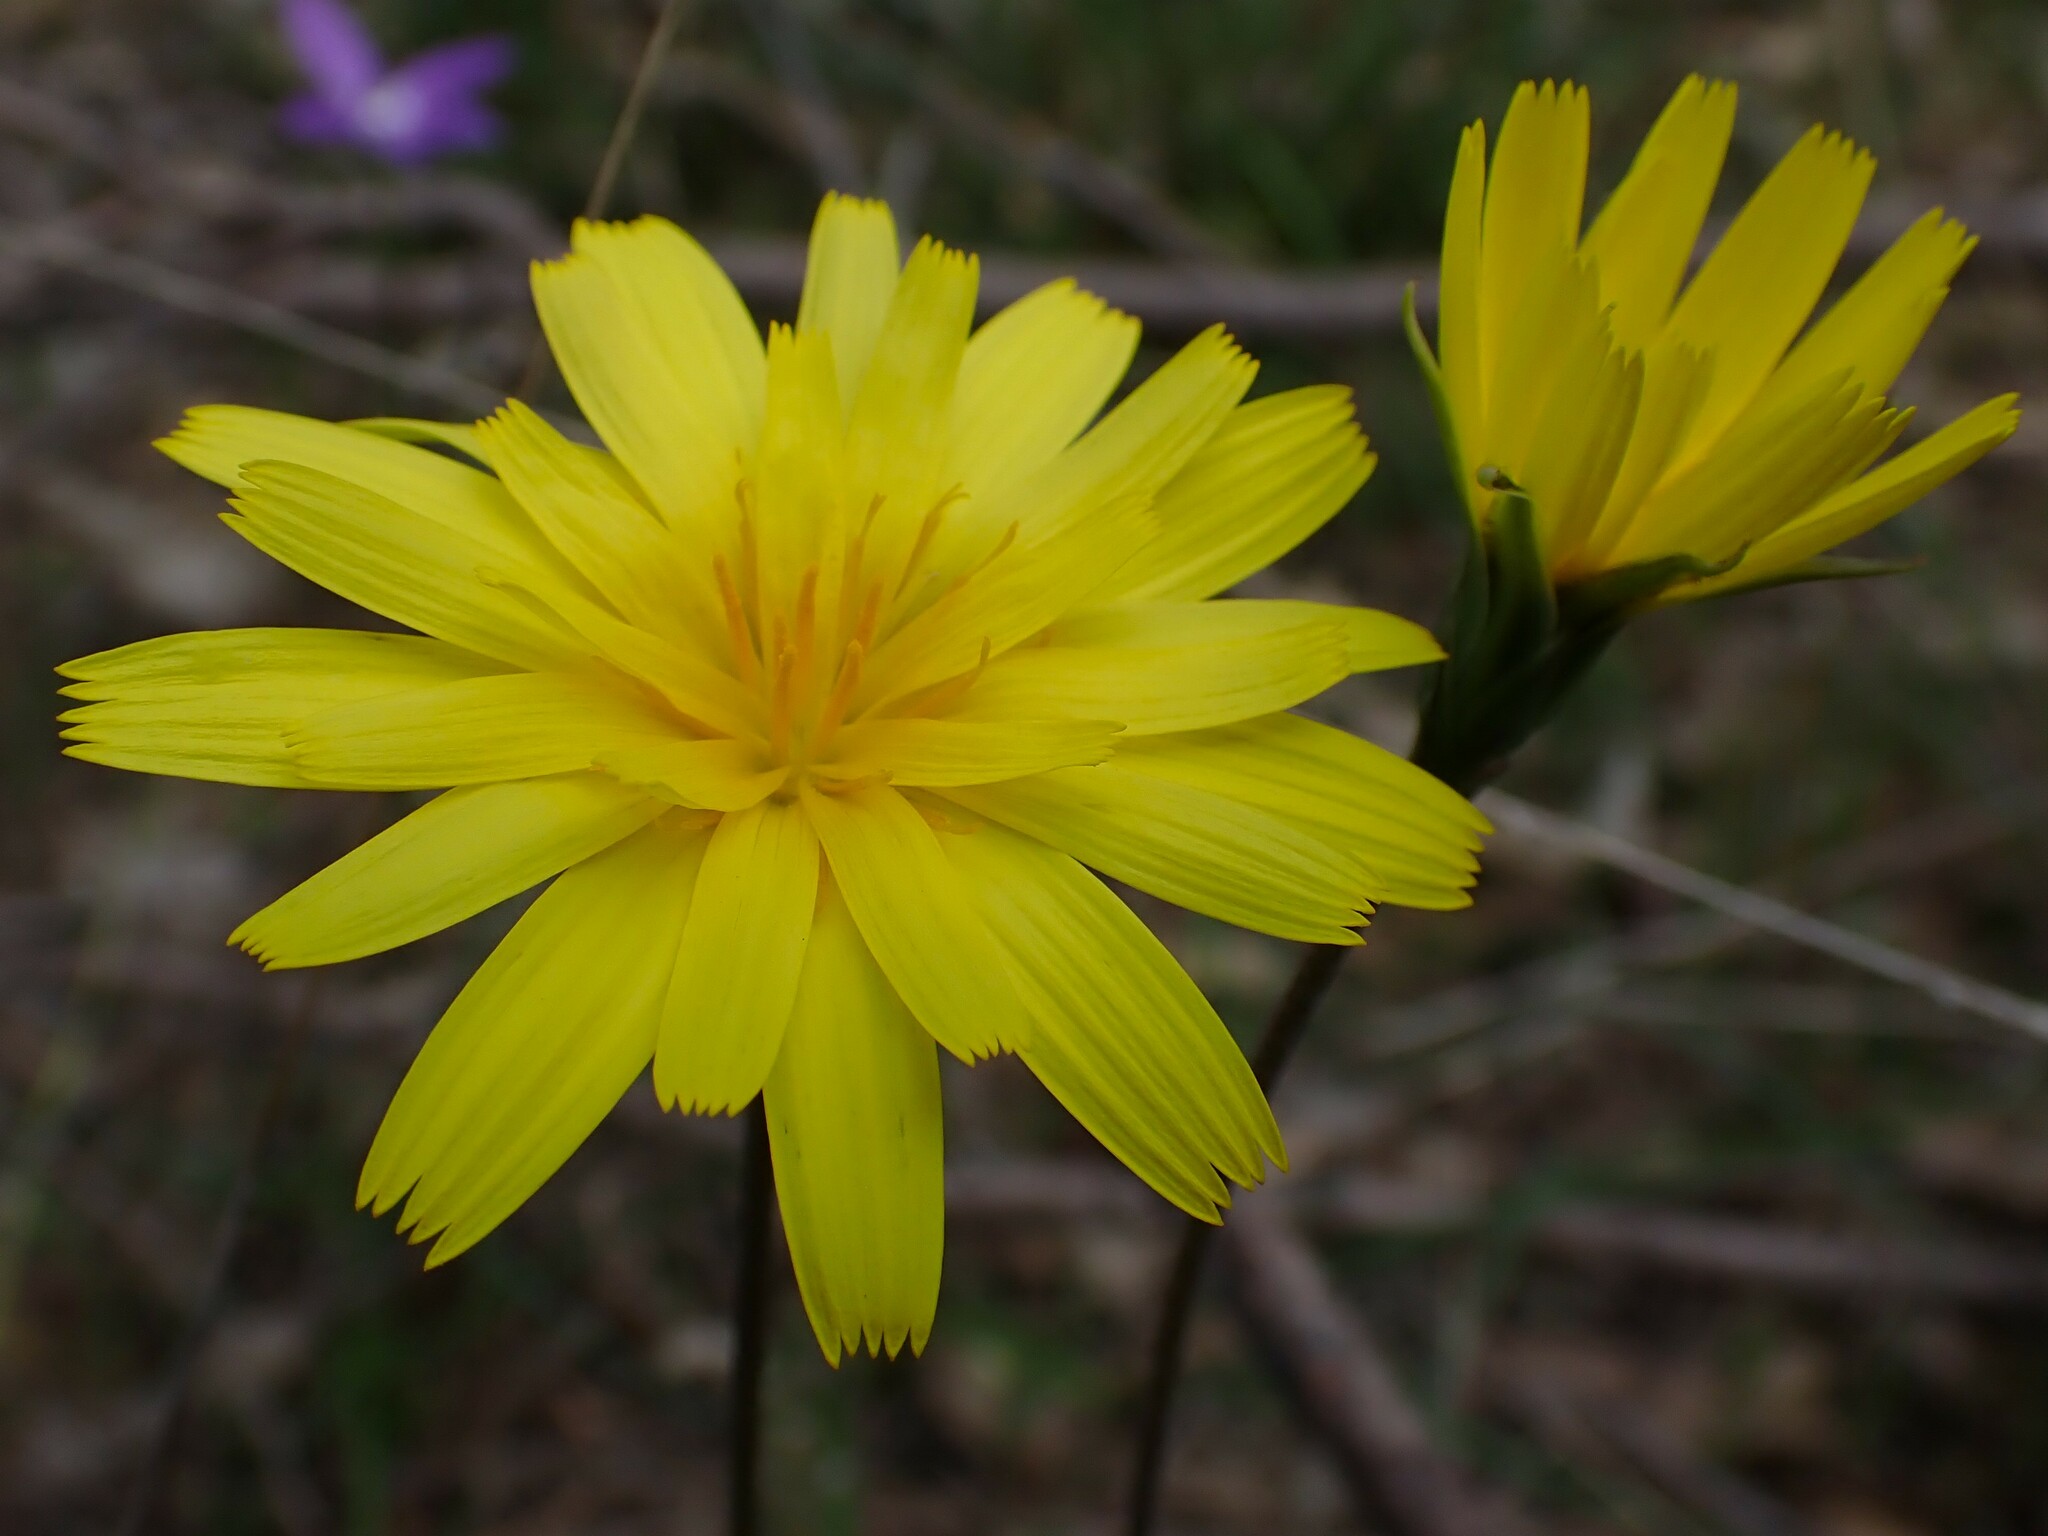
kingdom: Plantae
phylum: Tracheophyta
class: Magnoliopsida
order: Asterales
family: Asteraceae
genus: Microseris
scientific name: Microseris lanceolata
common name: Yam daisy
